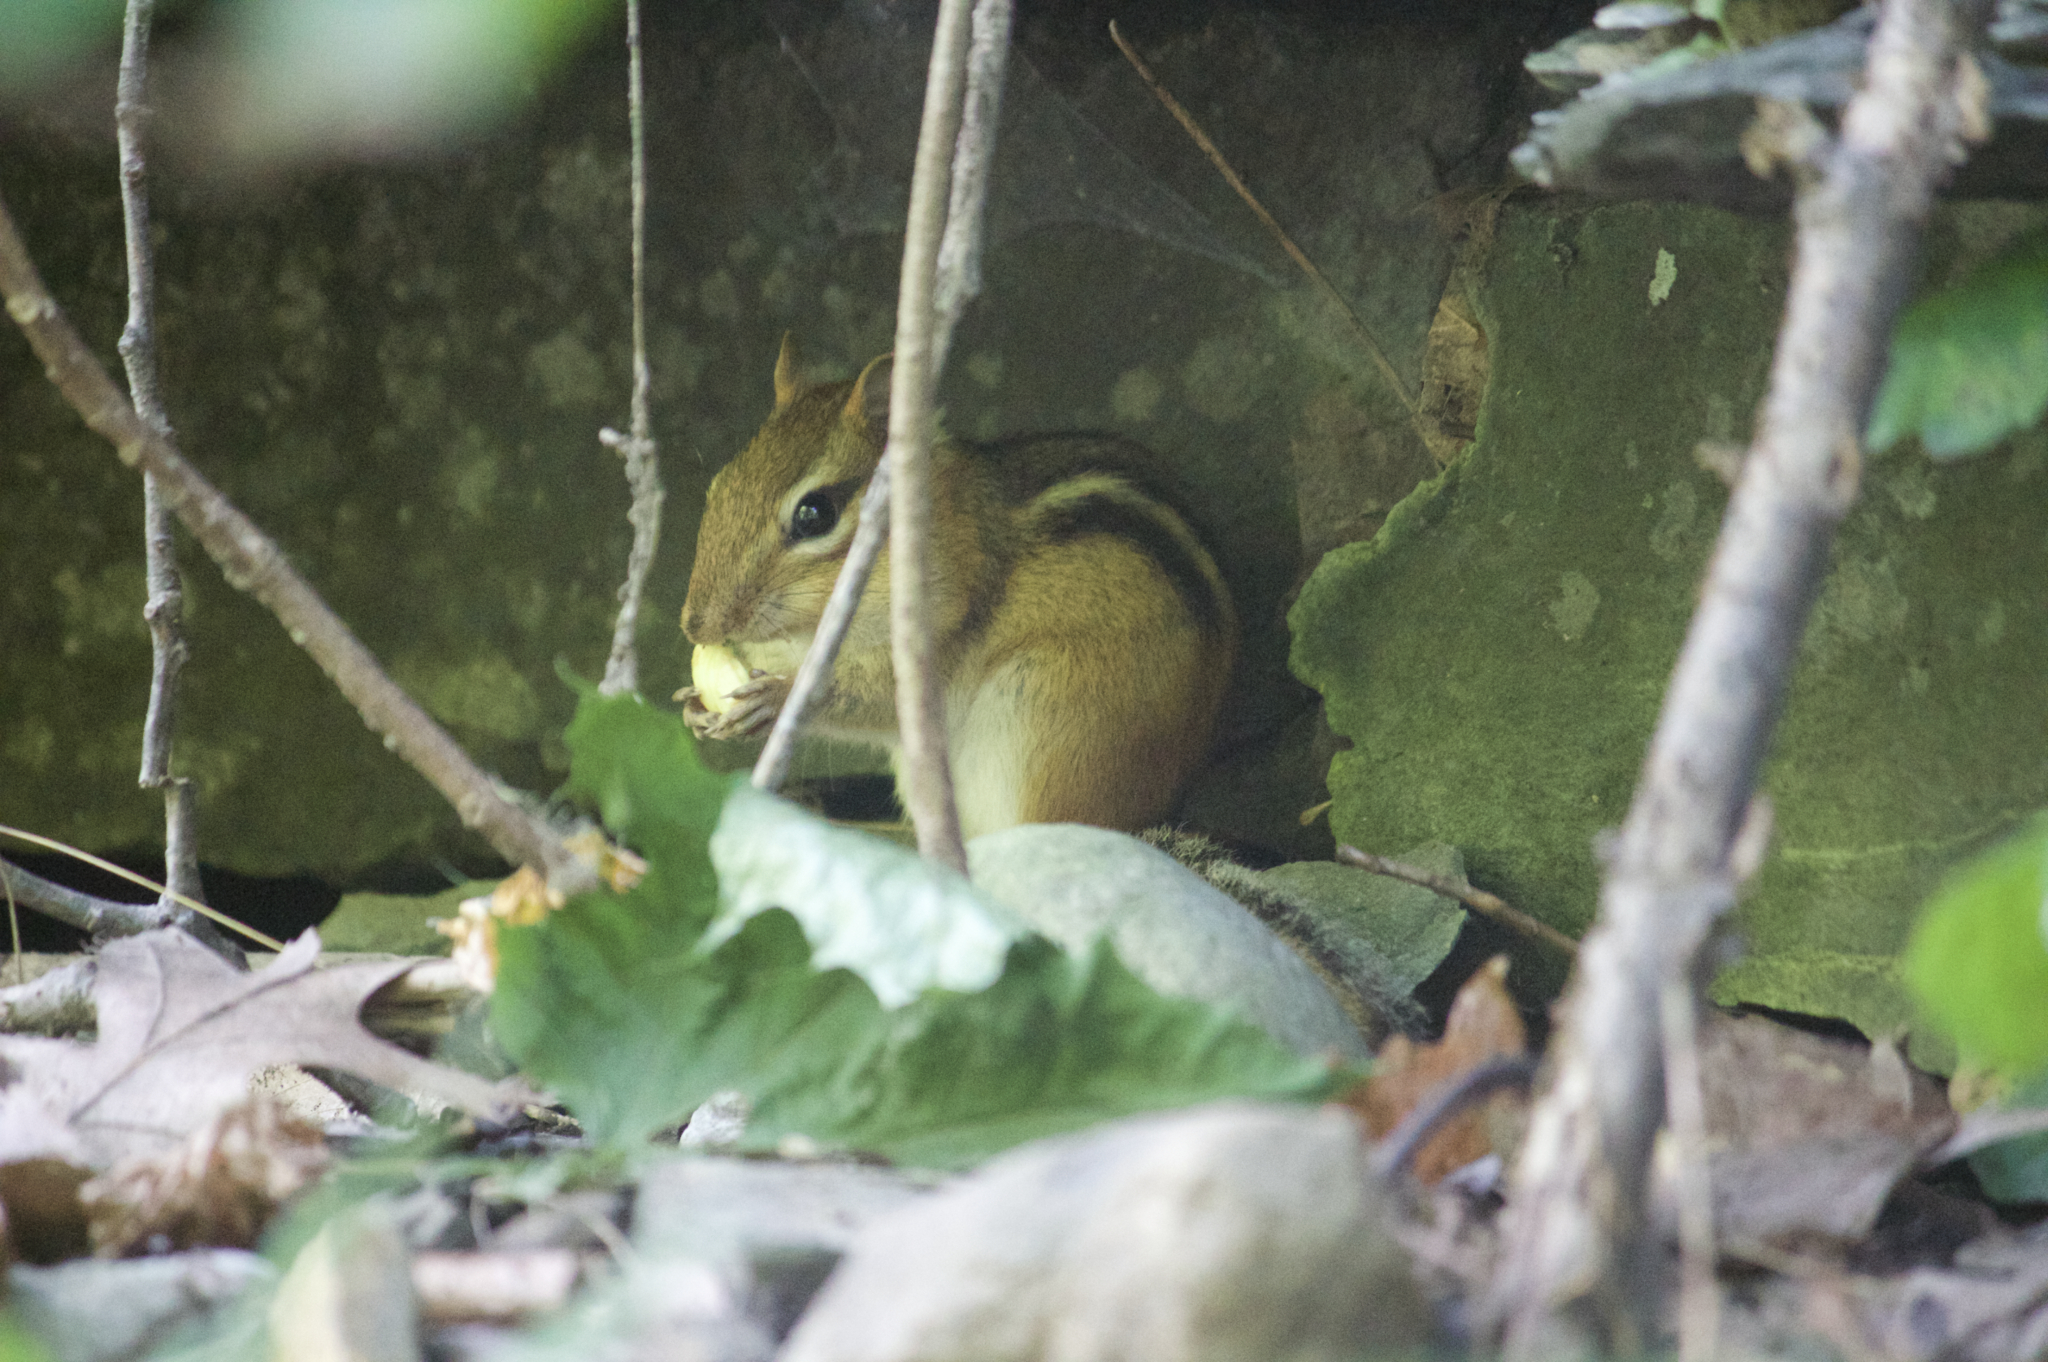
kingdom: Animalia
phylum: Chordata
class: Mammalia
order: Rodentia
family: Sciuridae
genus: Tamias
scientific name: Tamias striatus
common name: Eastern chipmunk
